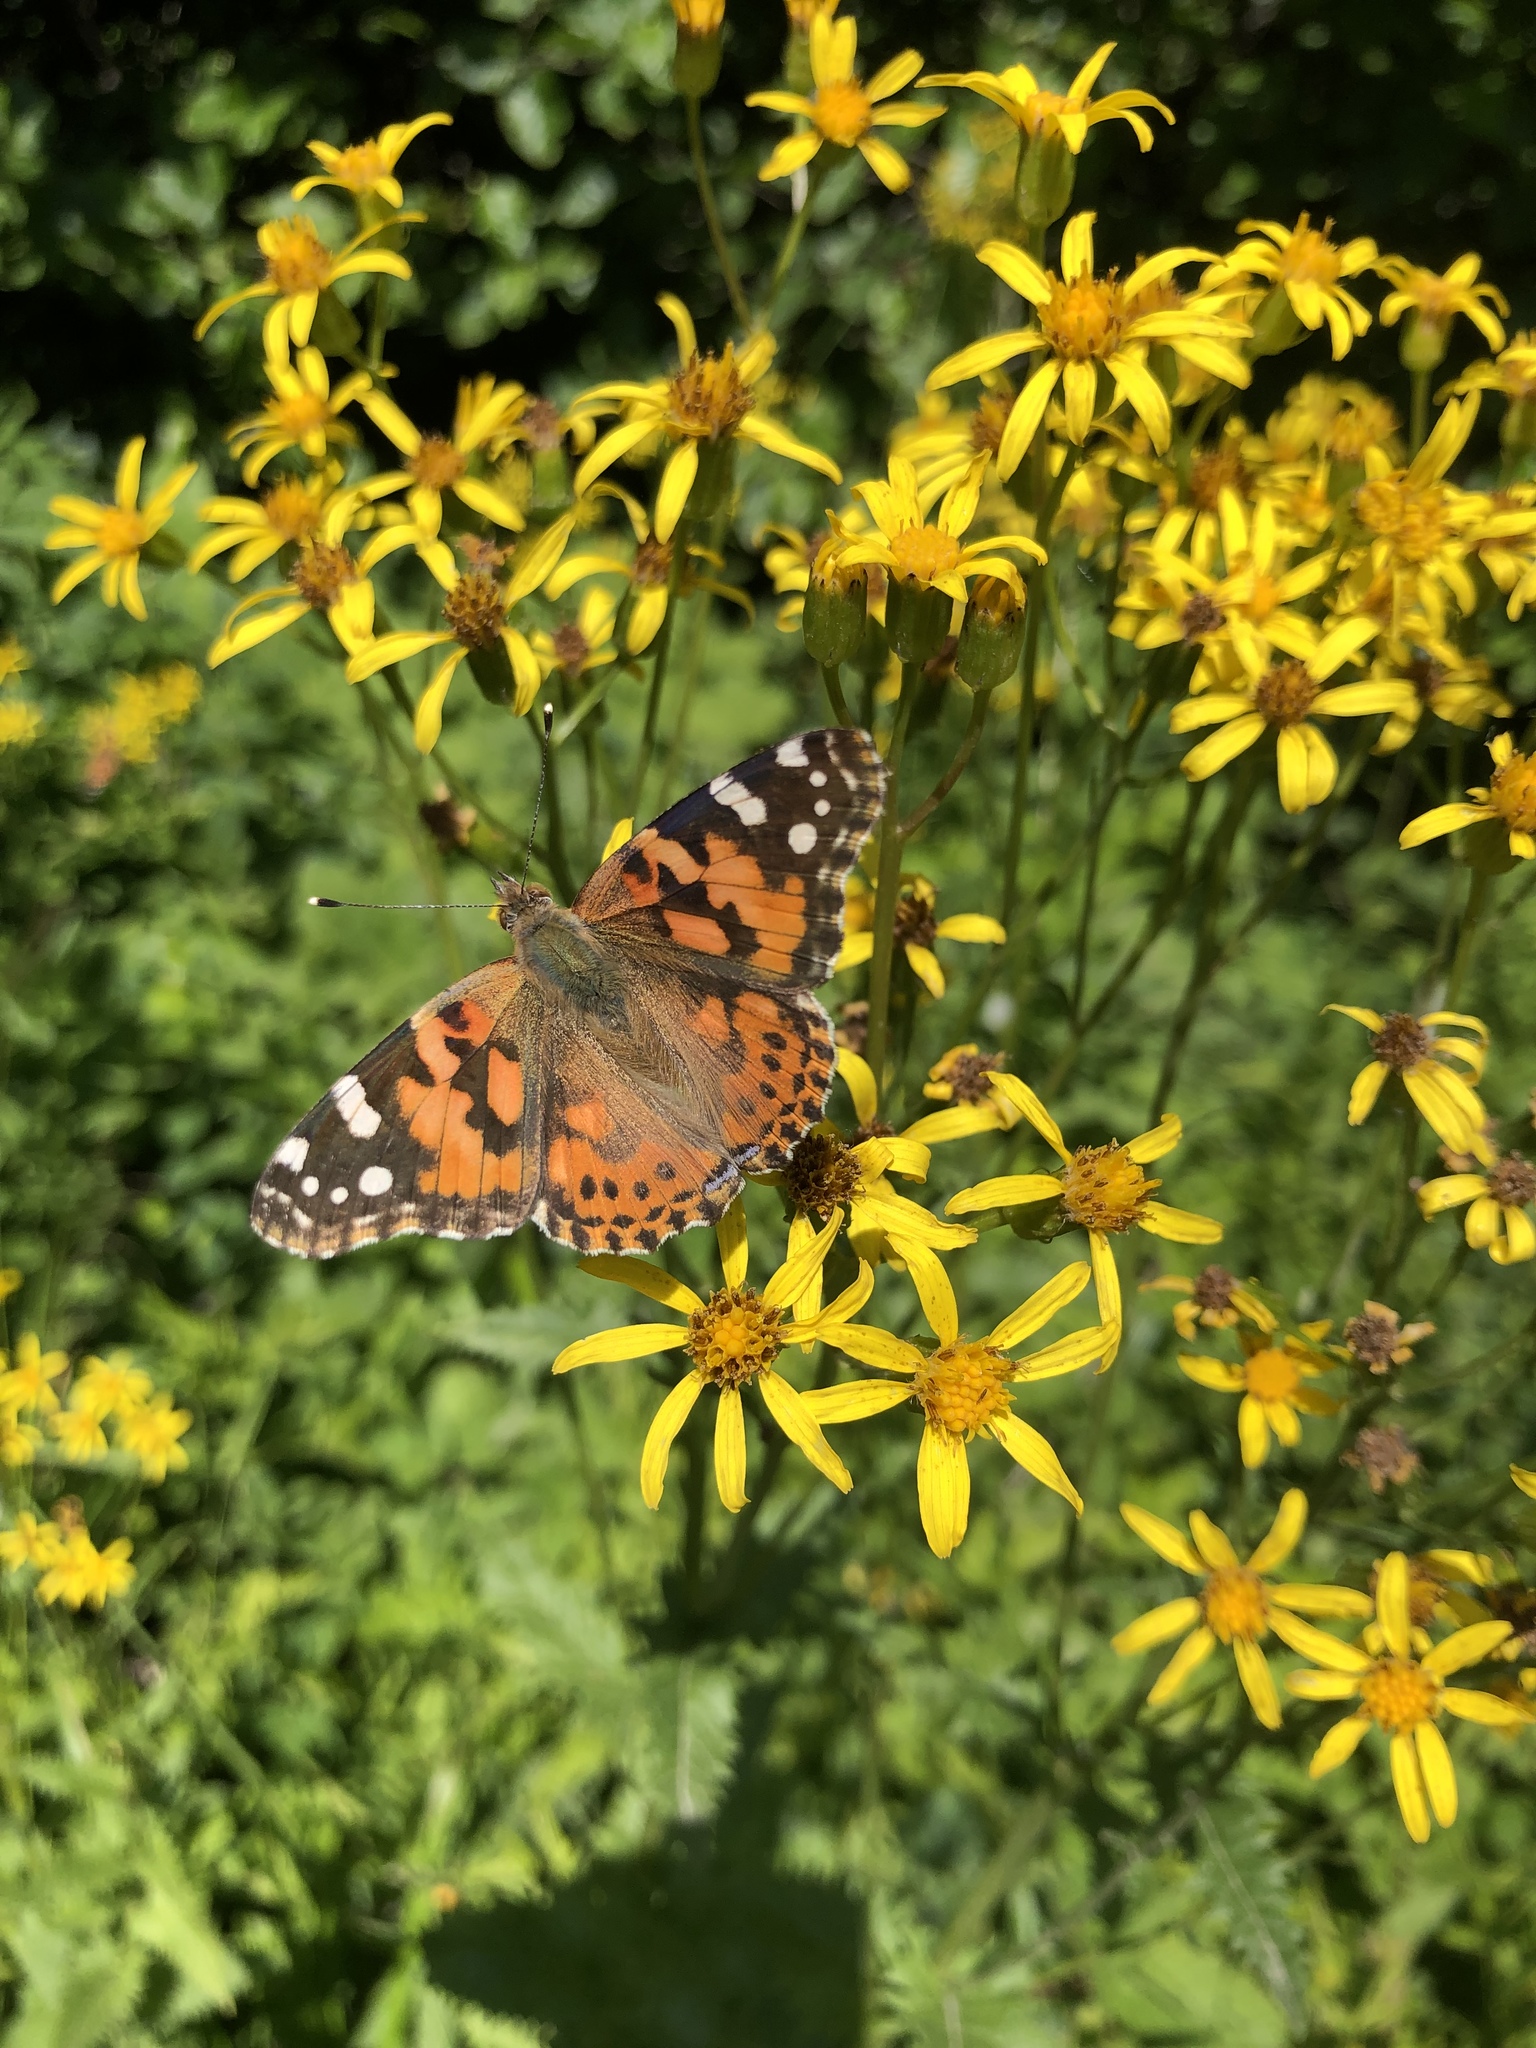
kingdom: Animalia
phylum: Arthropoda
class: Insecta
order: Lepidoptera
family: Nymphalidae
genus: Vanessa
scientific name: Vanessa cardui
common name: Painted lady
